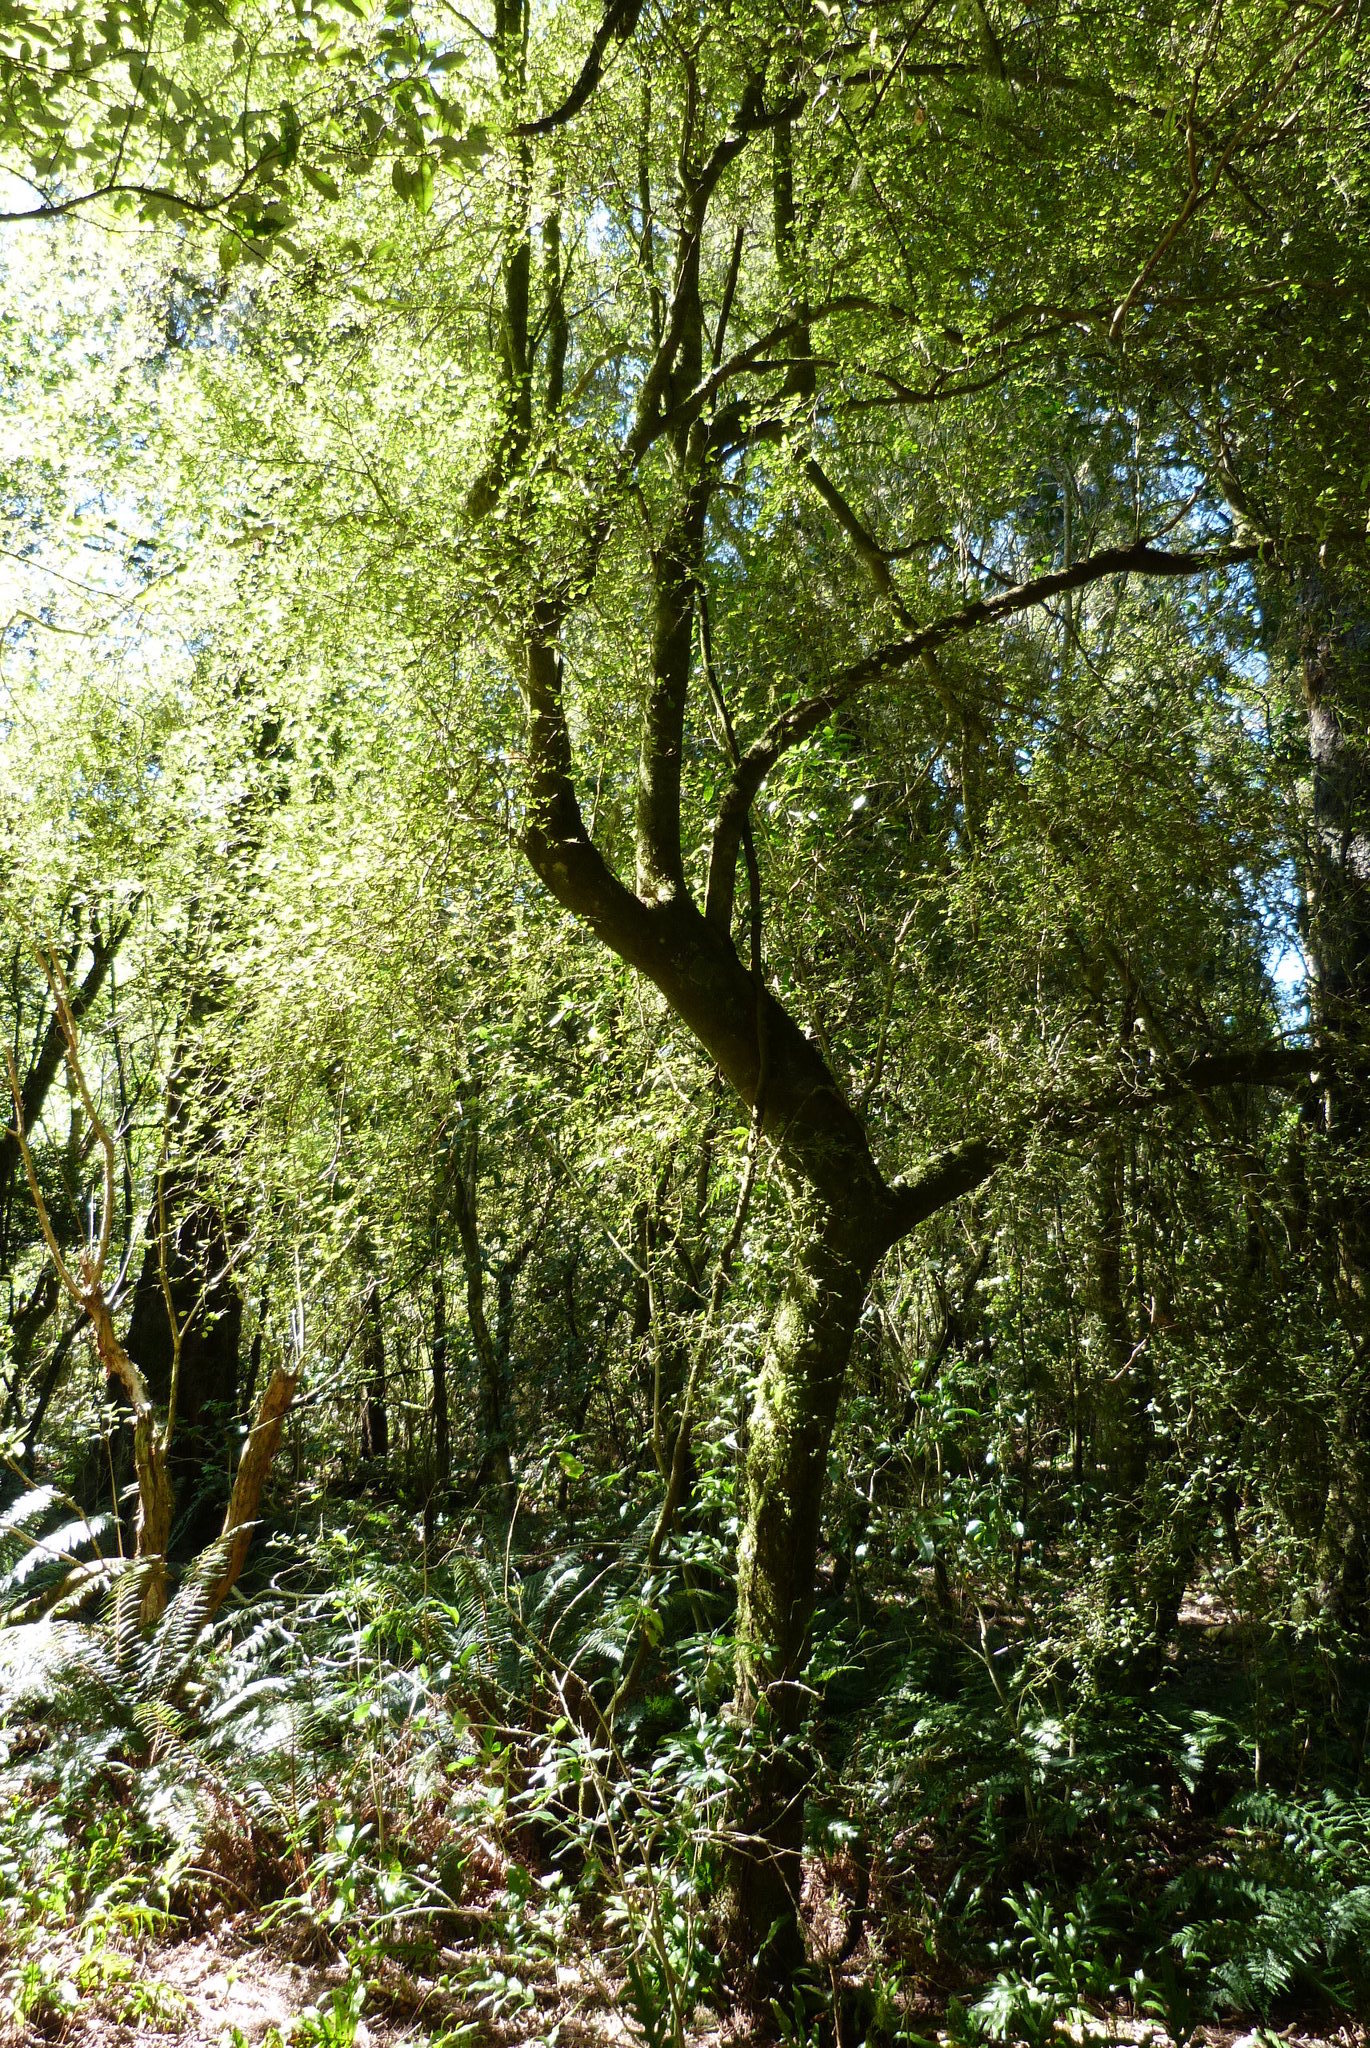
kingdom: Plantae
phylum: Tracheophyta
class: Magnoliopsida
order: Gentianales
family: Rubiaceae
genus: Coprosma
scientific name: Coprosma rotundifolia
